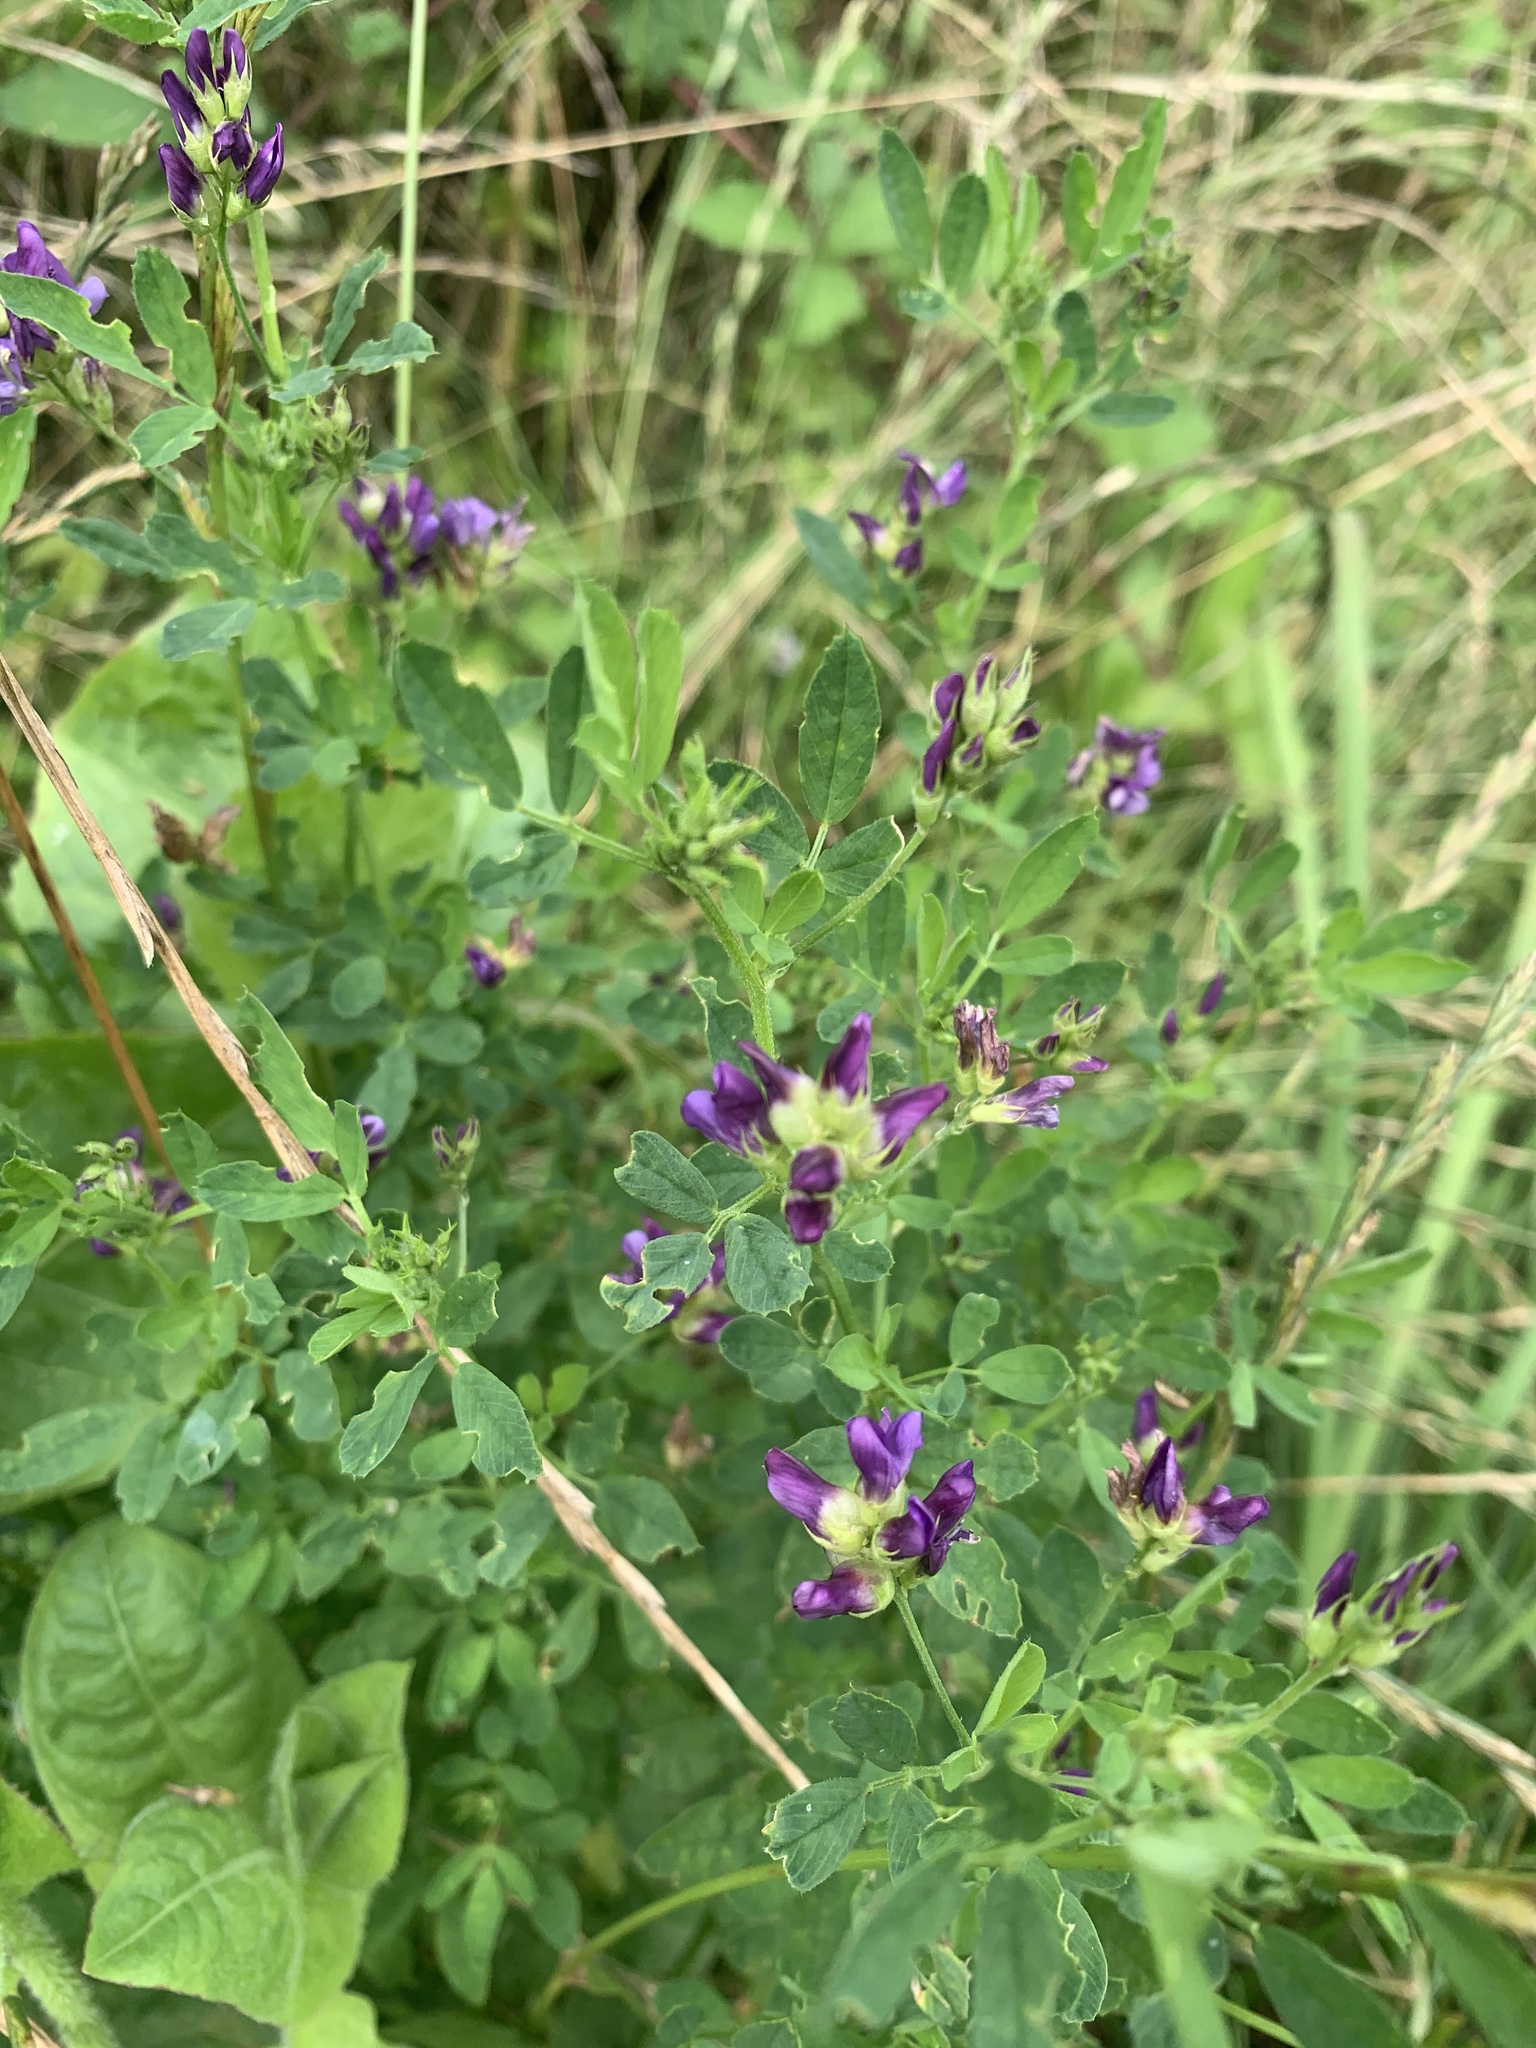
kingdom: Plantae
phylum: Tracheophyta
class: Magnoliopsida
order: Fabales
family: Fabaceae
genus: Medicago
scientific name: Medicago sativa
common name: Alfalfa
